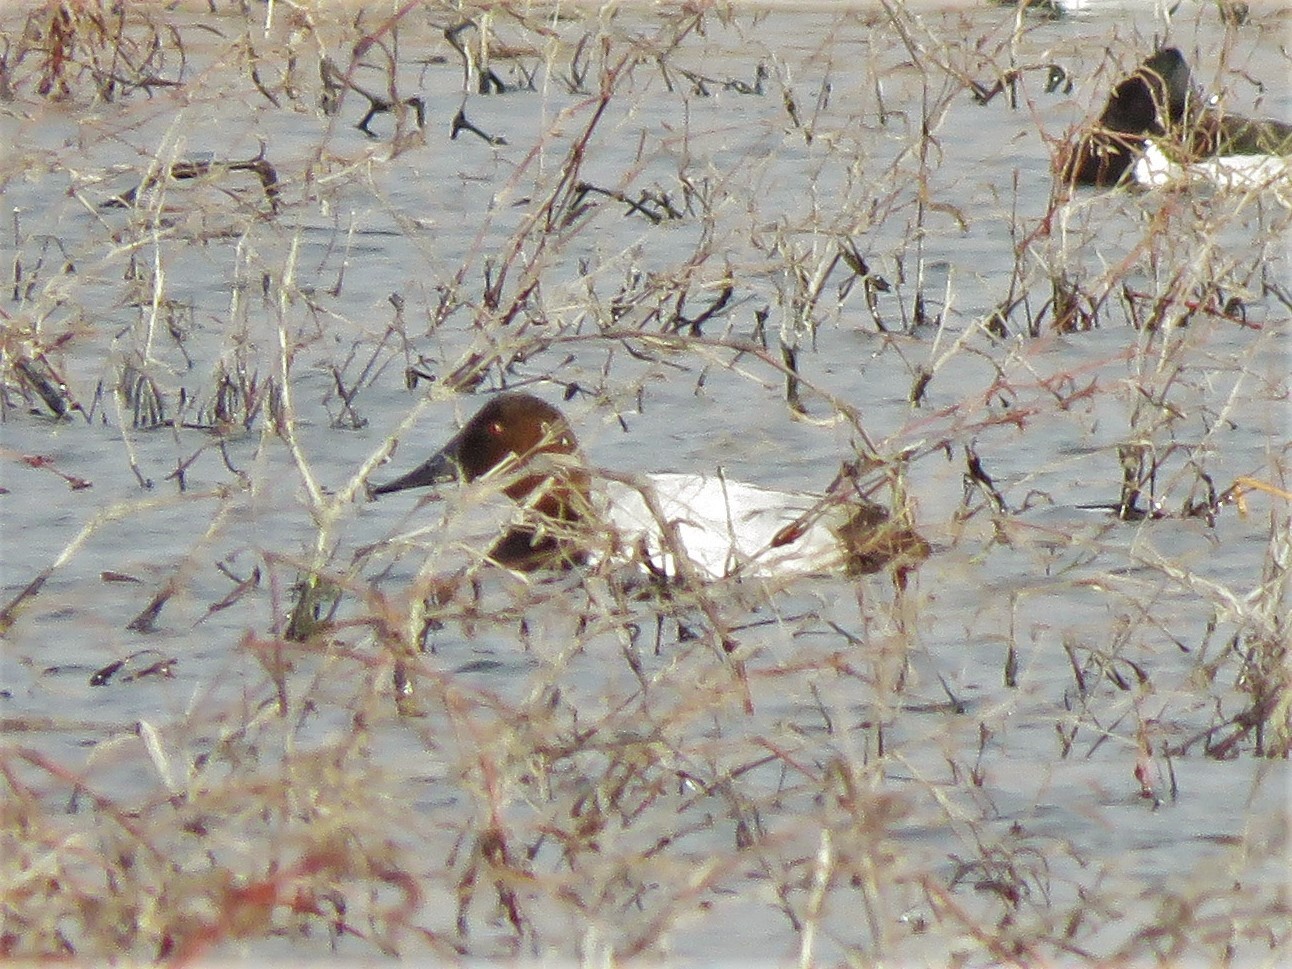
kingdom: Animalia
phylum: Chordata
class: Aves
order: Anseriformes
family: Anatidae
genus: Aythya
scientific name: Aythya valisineria
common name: Canvasback
